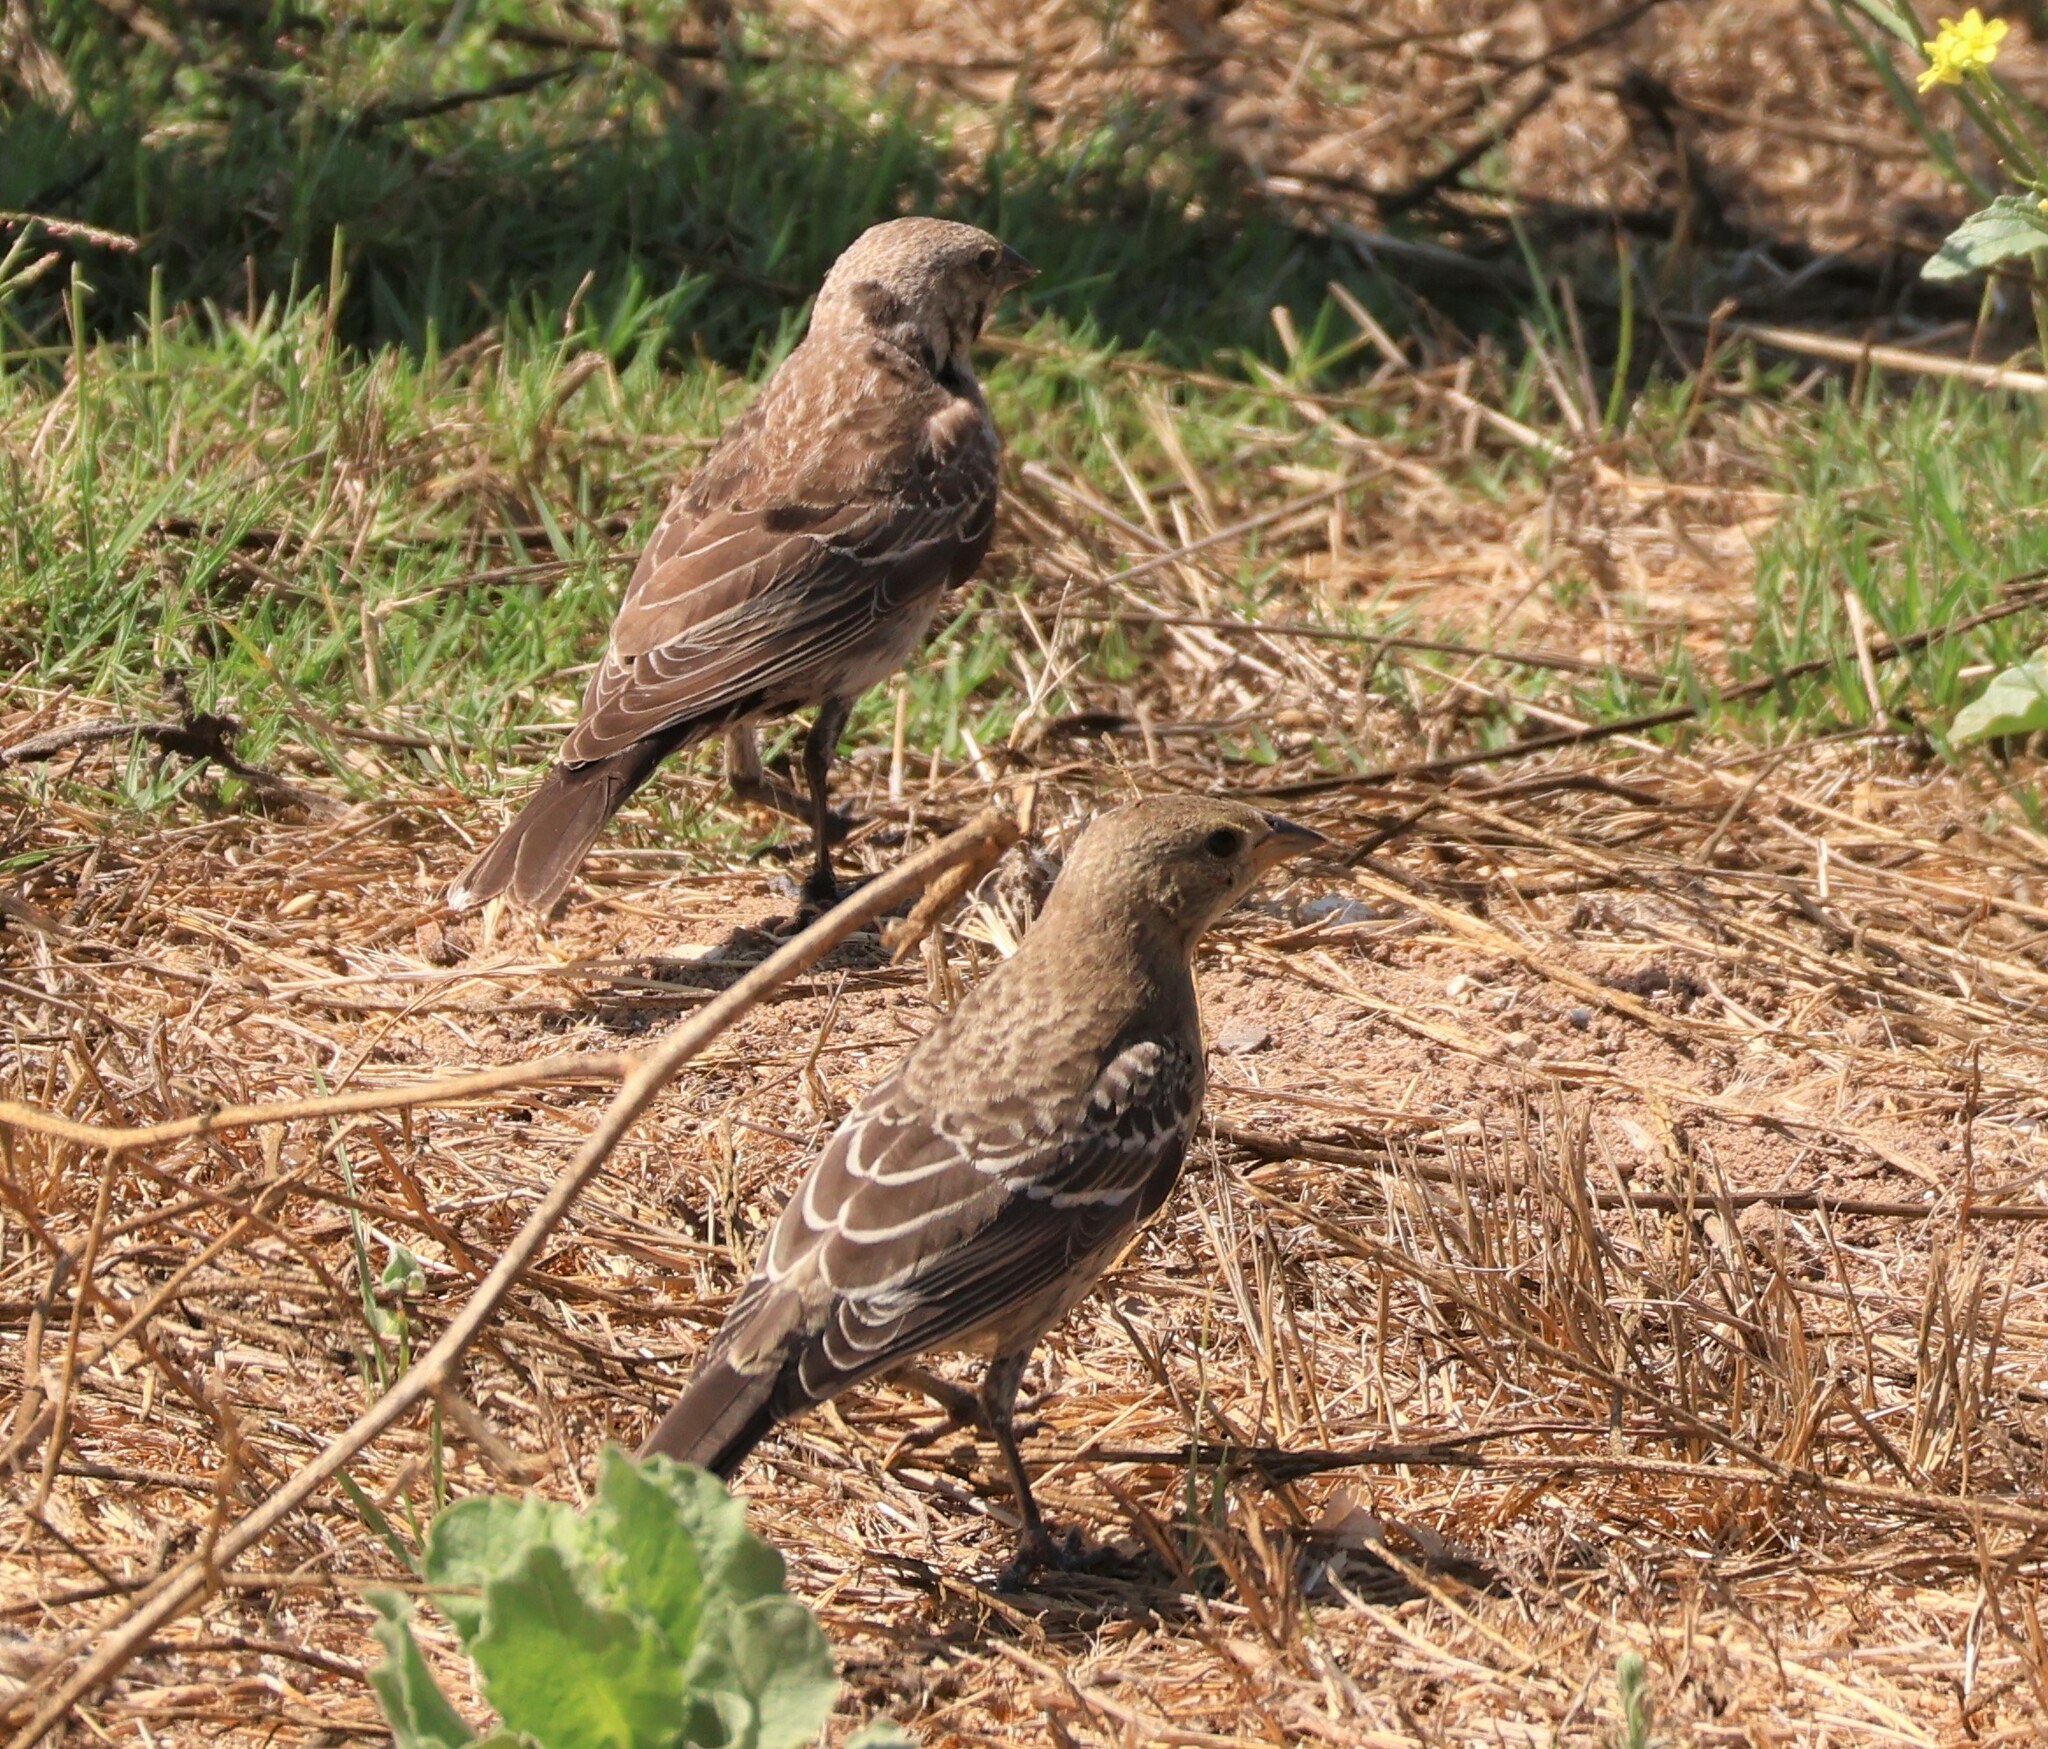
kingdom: Animalia
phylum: Chordata
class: Aves
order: Passeriformes
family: Icteridae
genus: Molothrus
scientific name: Molothrus ater
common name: Brown-headed cowbird
